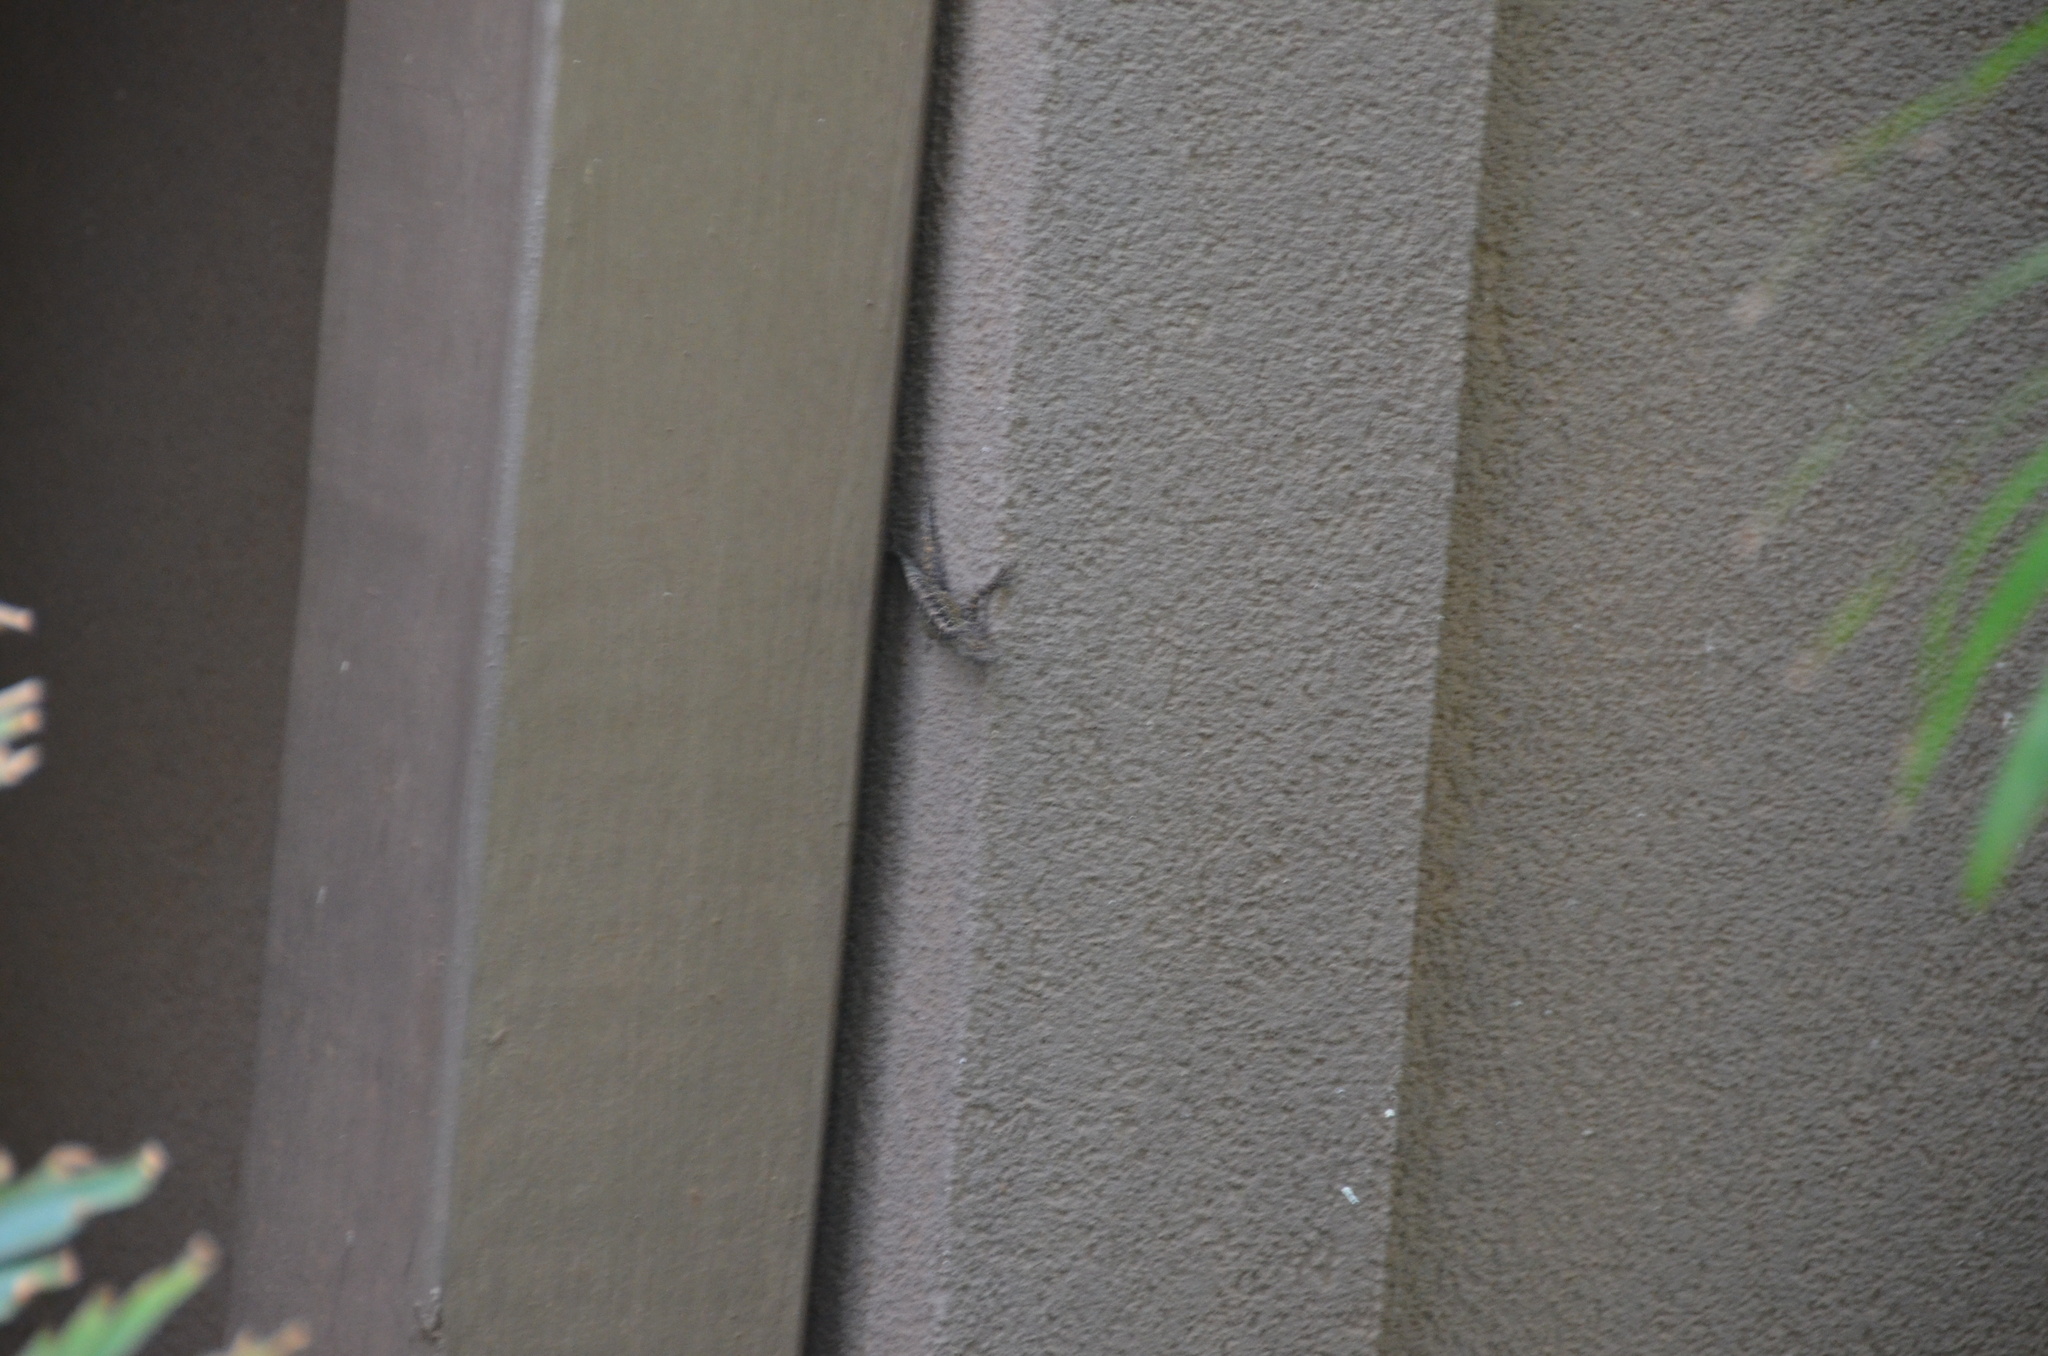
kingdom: Animalia
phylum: Chordata
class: Squamata
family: Dactyloidae
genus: Anolis
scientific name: Anolis sagrei
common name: Brown anole
